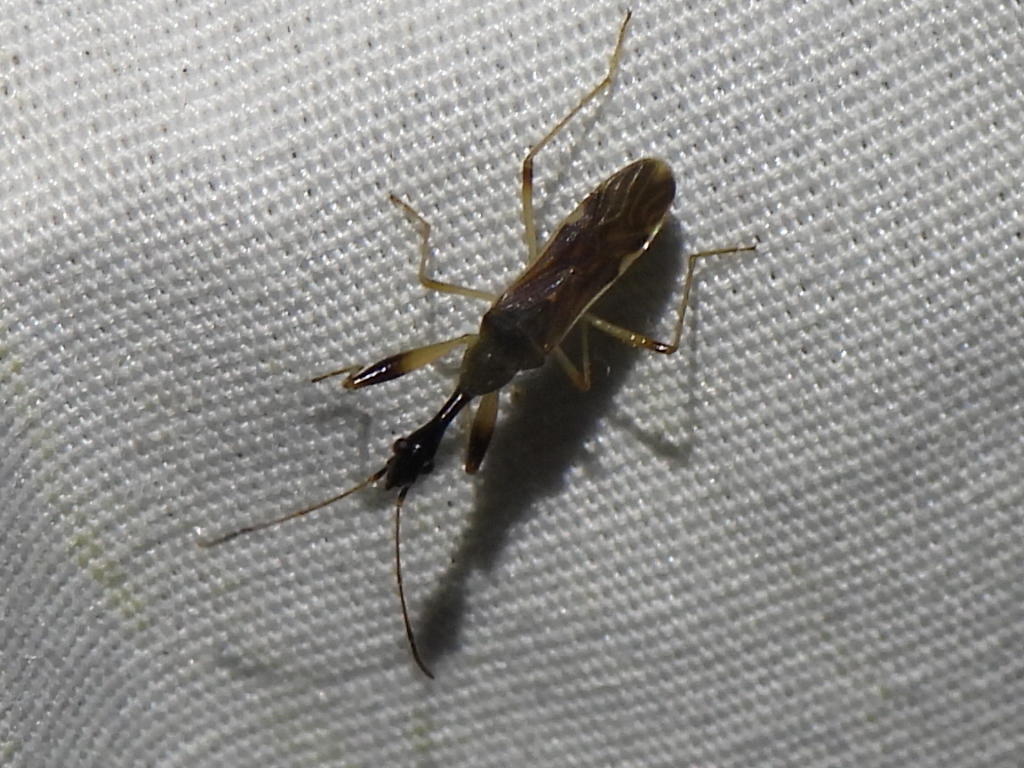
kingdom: Animalia
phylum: Arthropoda
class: Insecta
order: Hemiptera
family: Rhyparochromidae
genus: Myodocha
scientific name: Myodocha serripes
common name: Long-necked seed bug
